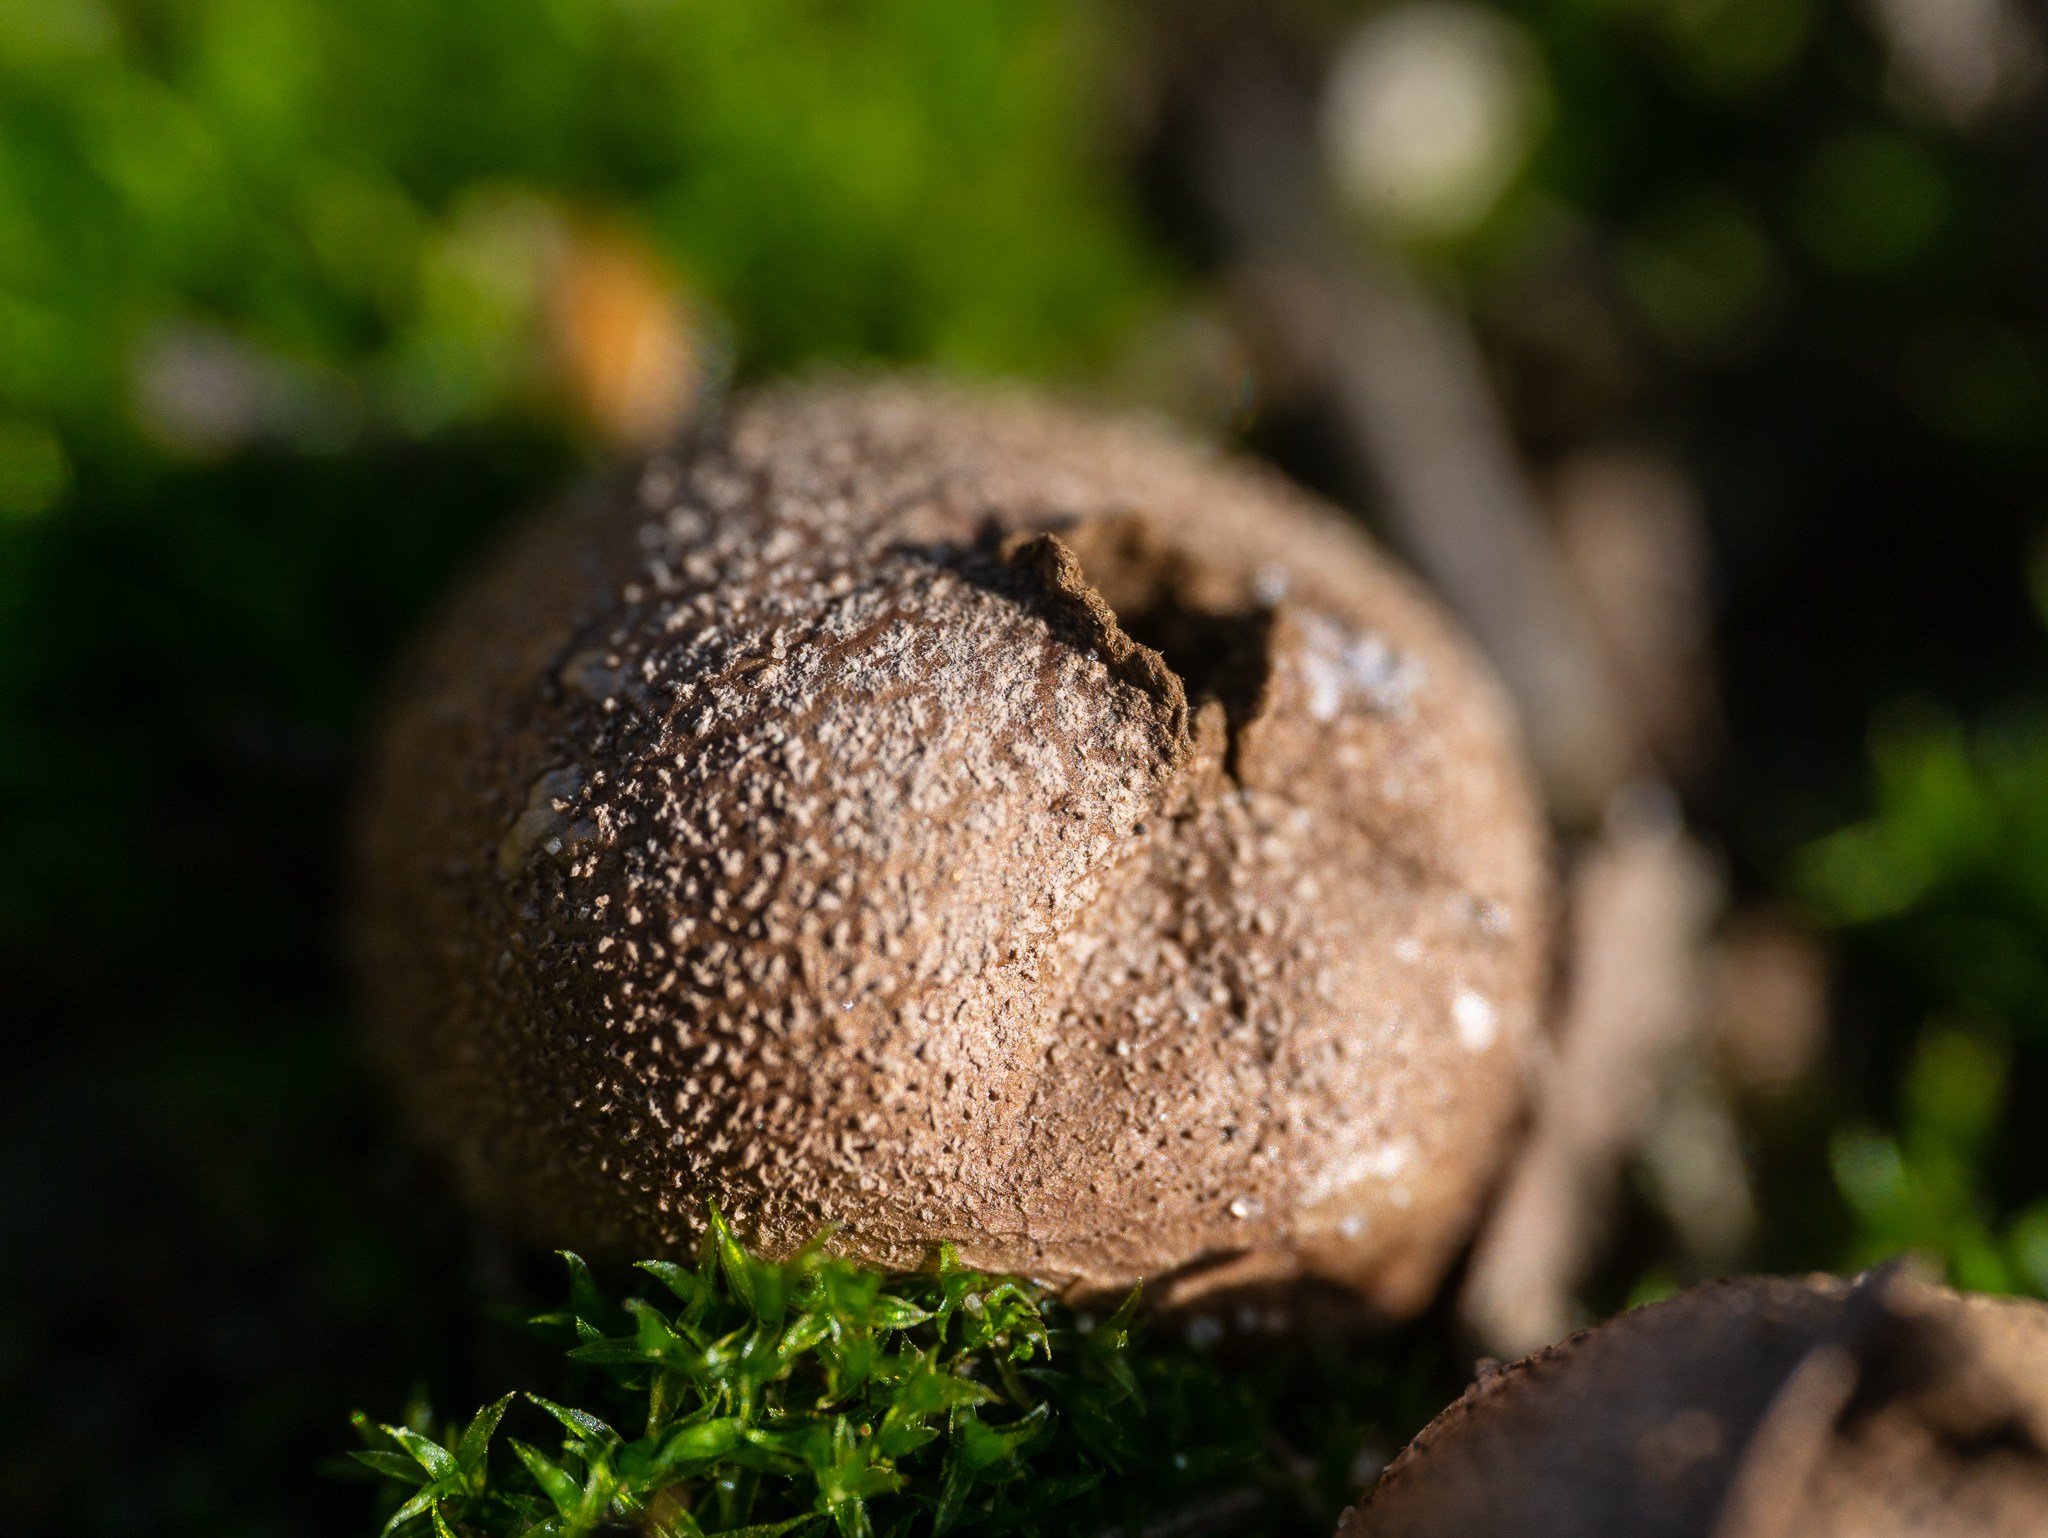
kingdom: Fungi
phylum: Basidiomycota
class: Agaricomycetes
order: Agaricales
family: Lycoperdaceae
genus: Apioperdon
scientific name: Apioperdon pyriforme
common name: Pear-shaped puffball
